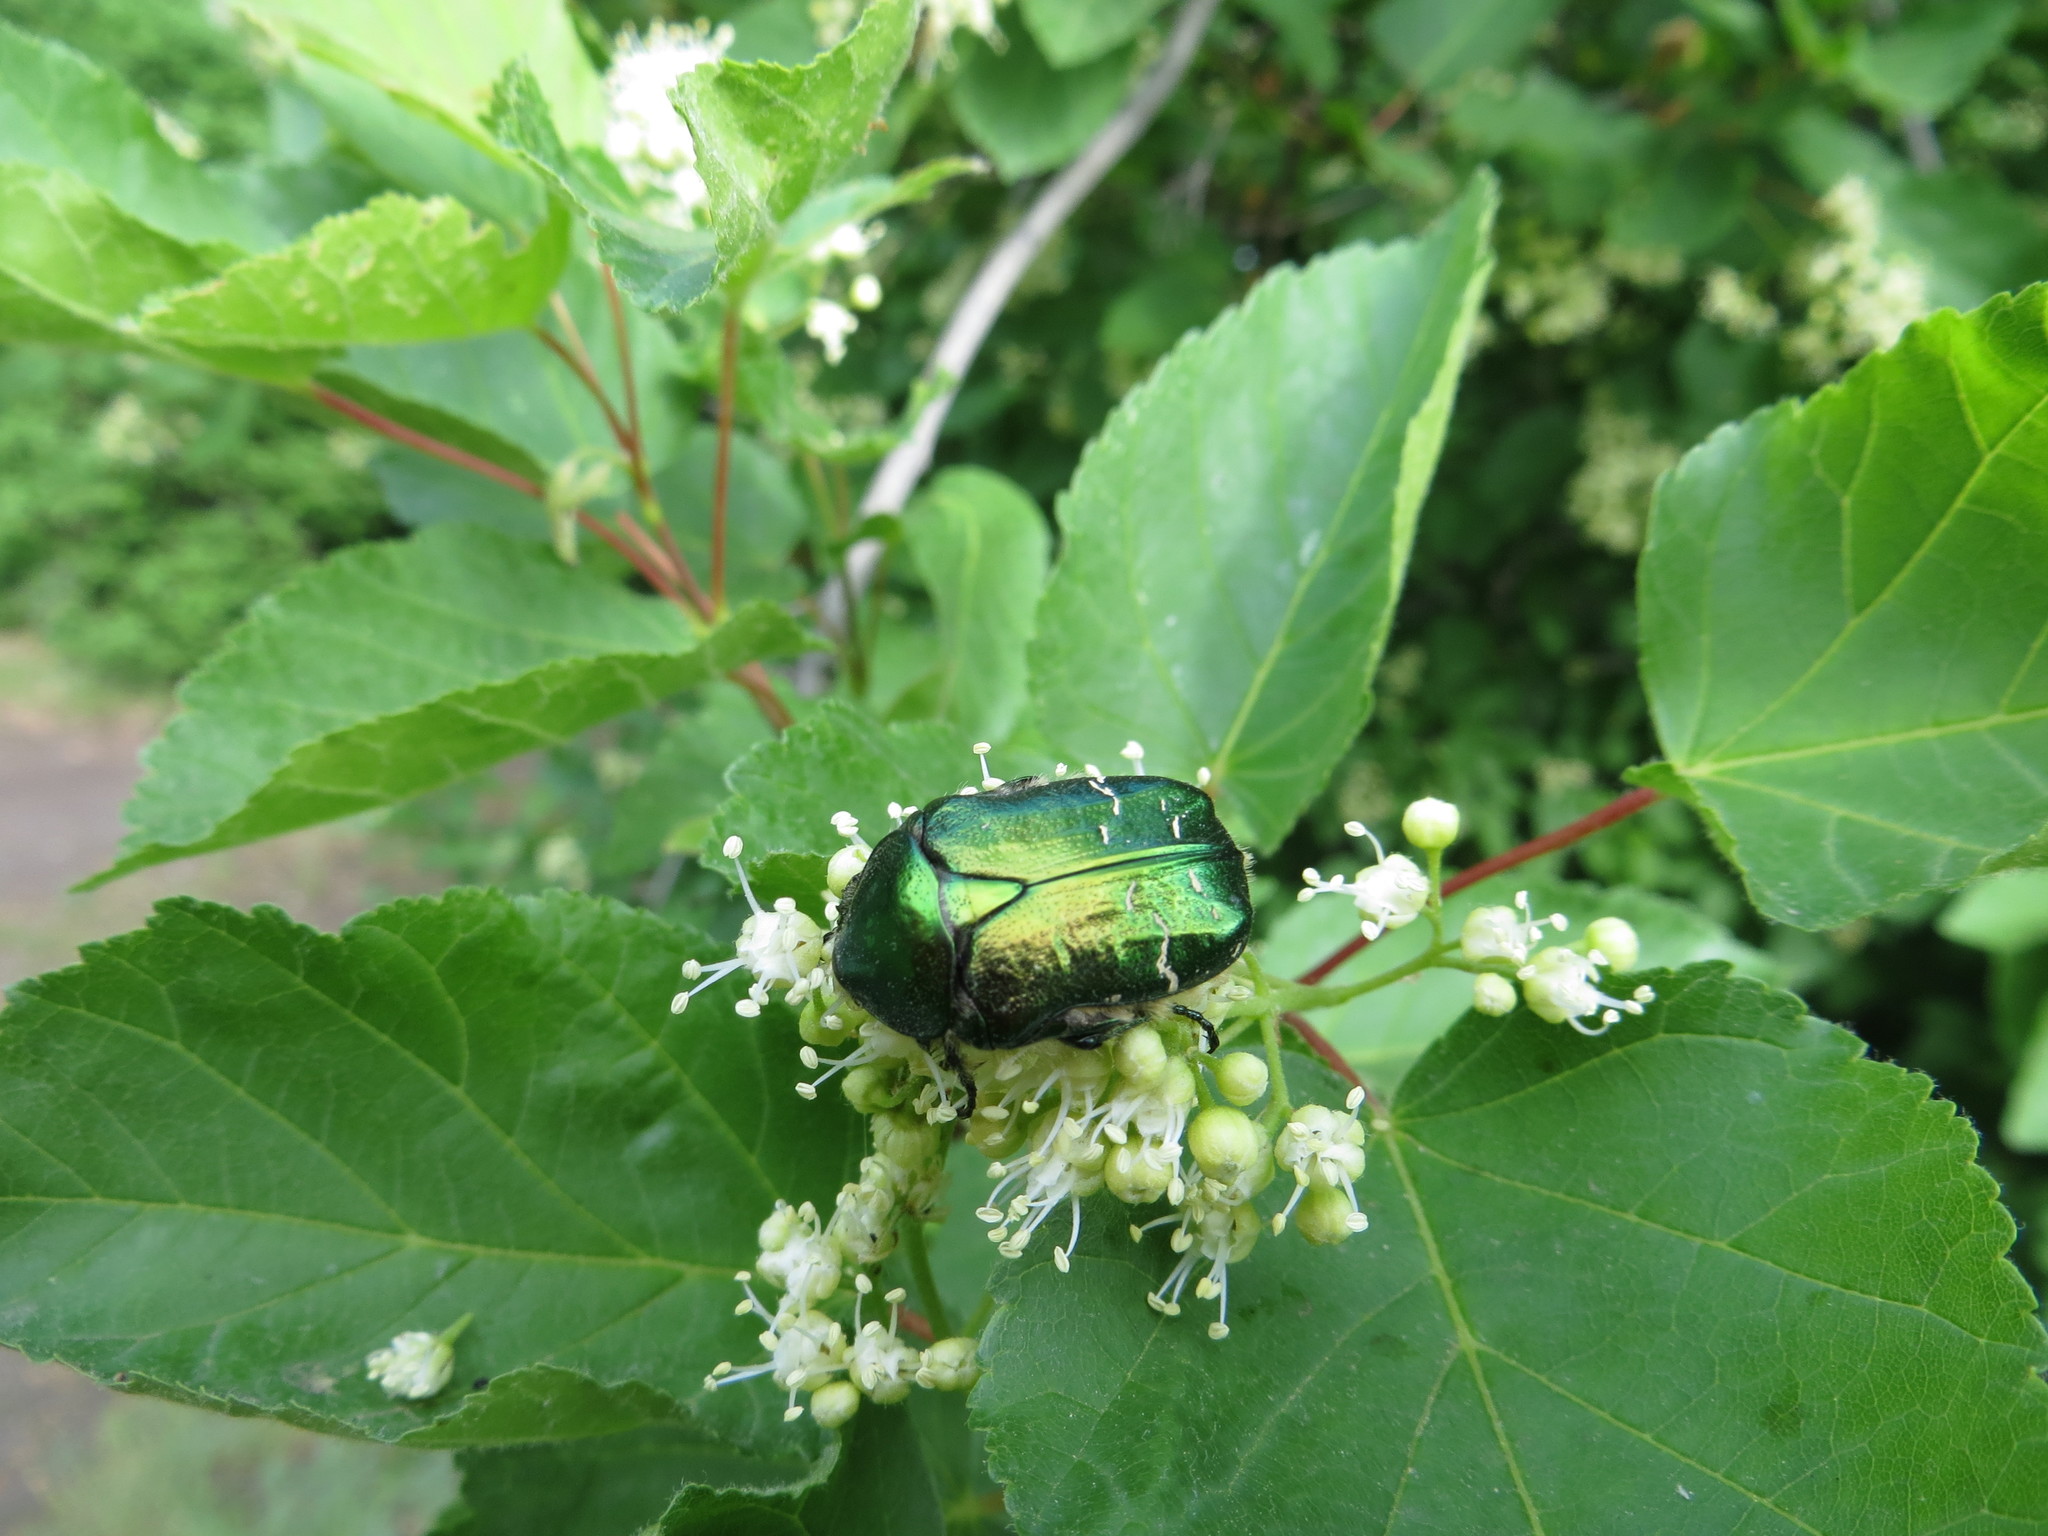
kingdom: Animalia
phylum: Arthropoda
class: Insecta
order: Coleoptera
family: Scarabaeidae
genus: Cetonia
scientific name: Cetonia aurata
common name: Rose chafer
